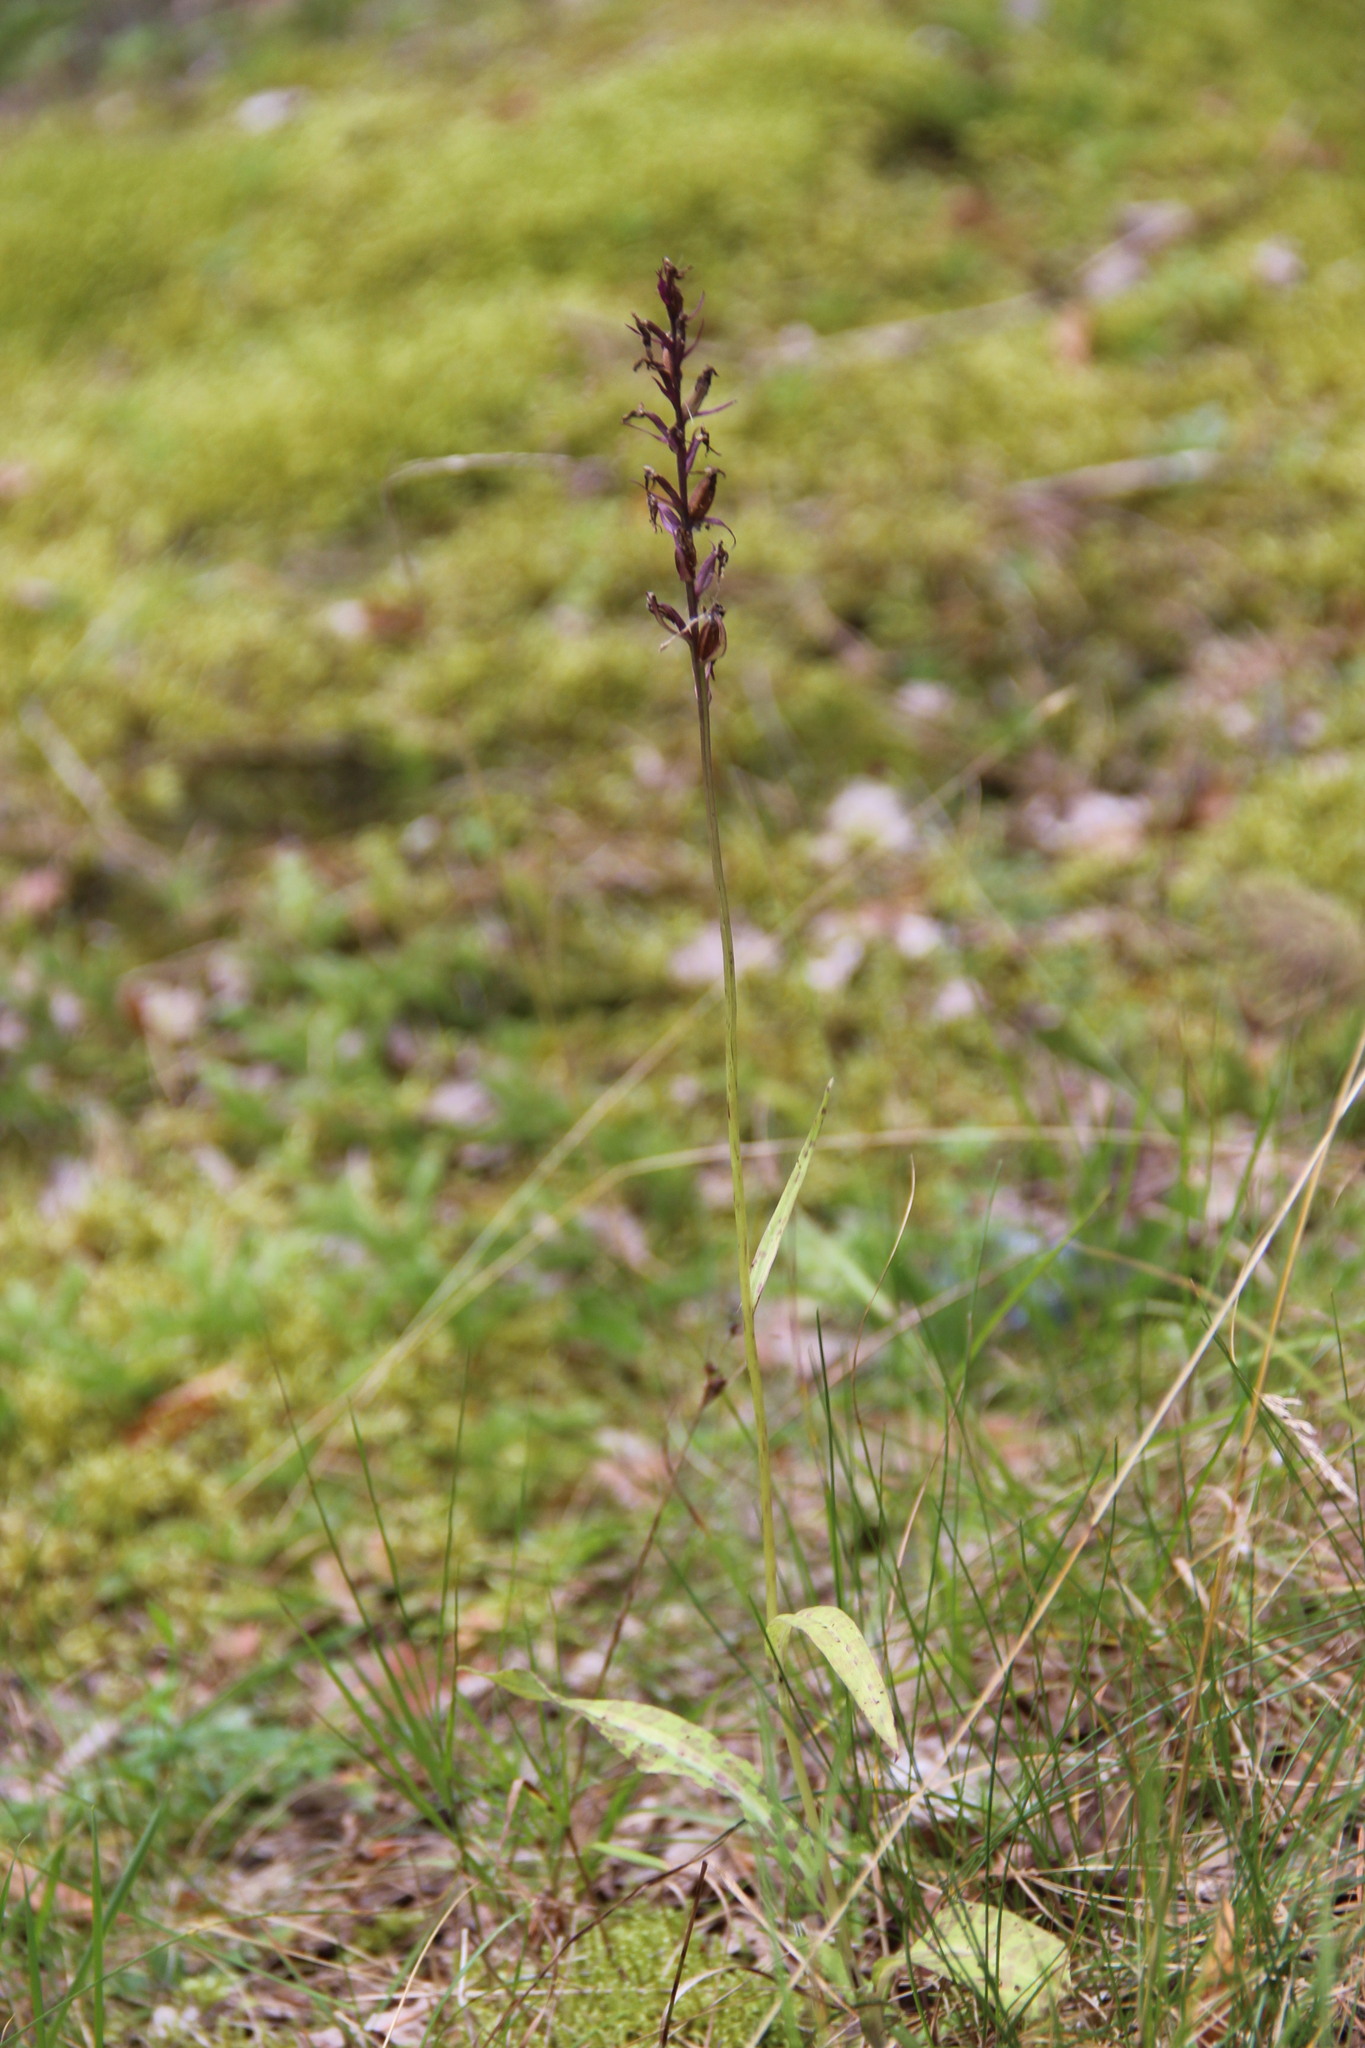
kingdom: Plantae
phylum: Tracheophyta
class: Liliopsida
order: Asparagales
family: Orchidaceae
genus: Dactylorhiza
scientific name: Dactylorhiza maculata
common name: Heath spotted-orchid
